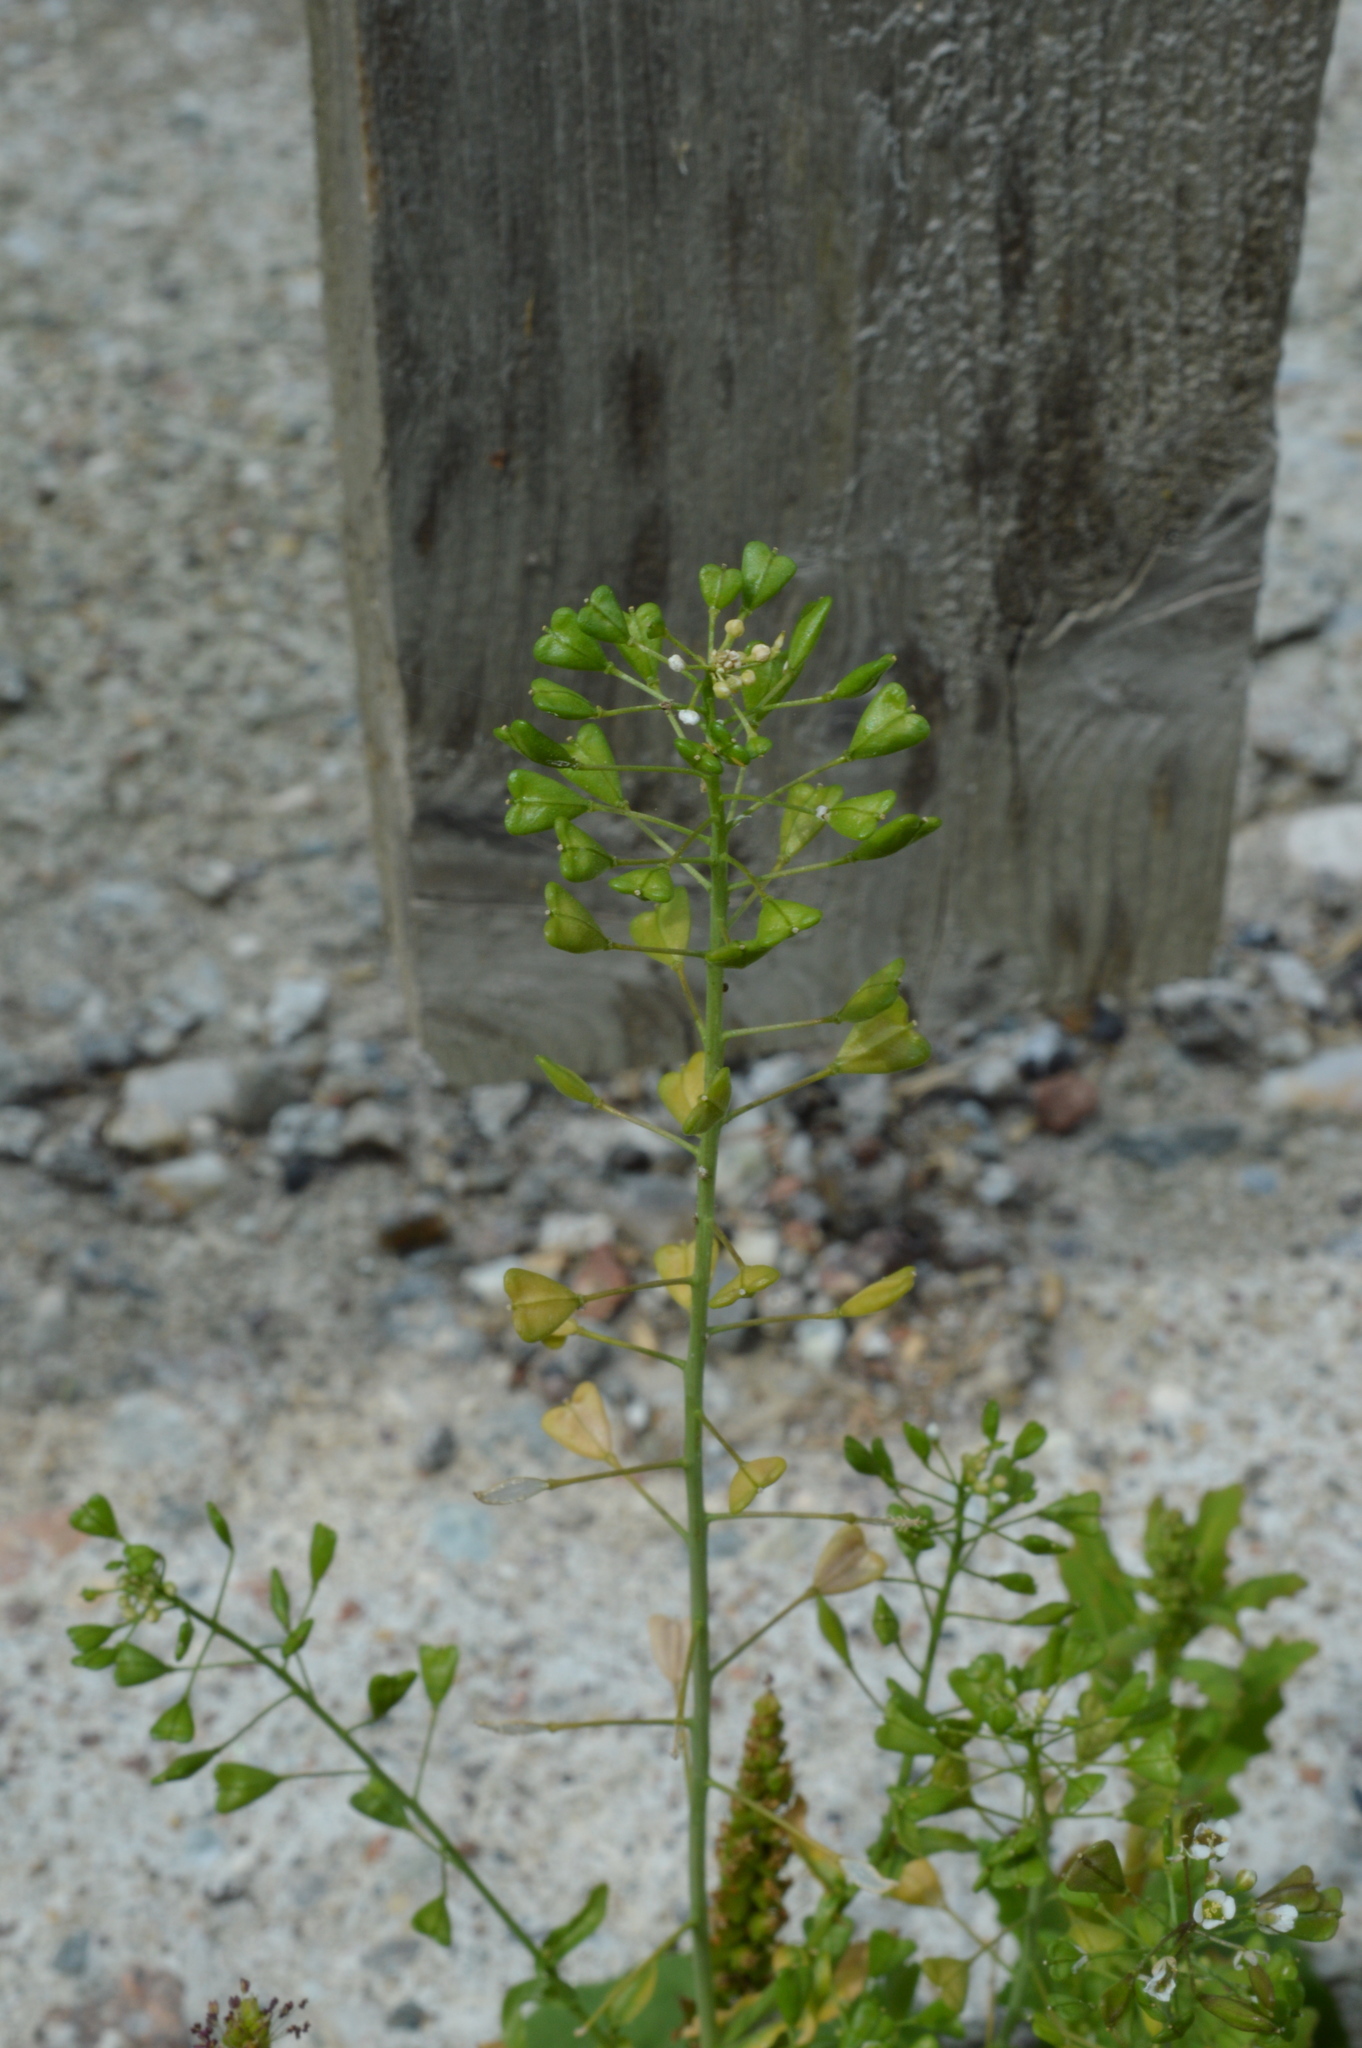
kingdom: Plantae
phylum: Tracheophyta
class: Magnoliopsida
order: Brassicales
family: Brassicaceae
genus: Capsella
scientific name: Capsella bursa-pastoris
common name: Shepherd's purse
